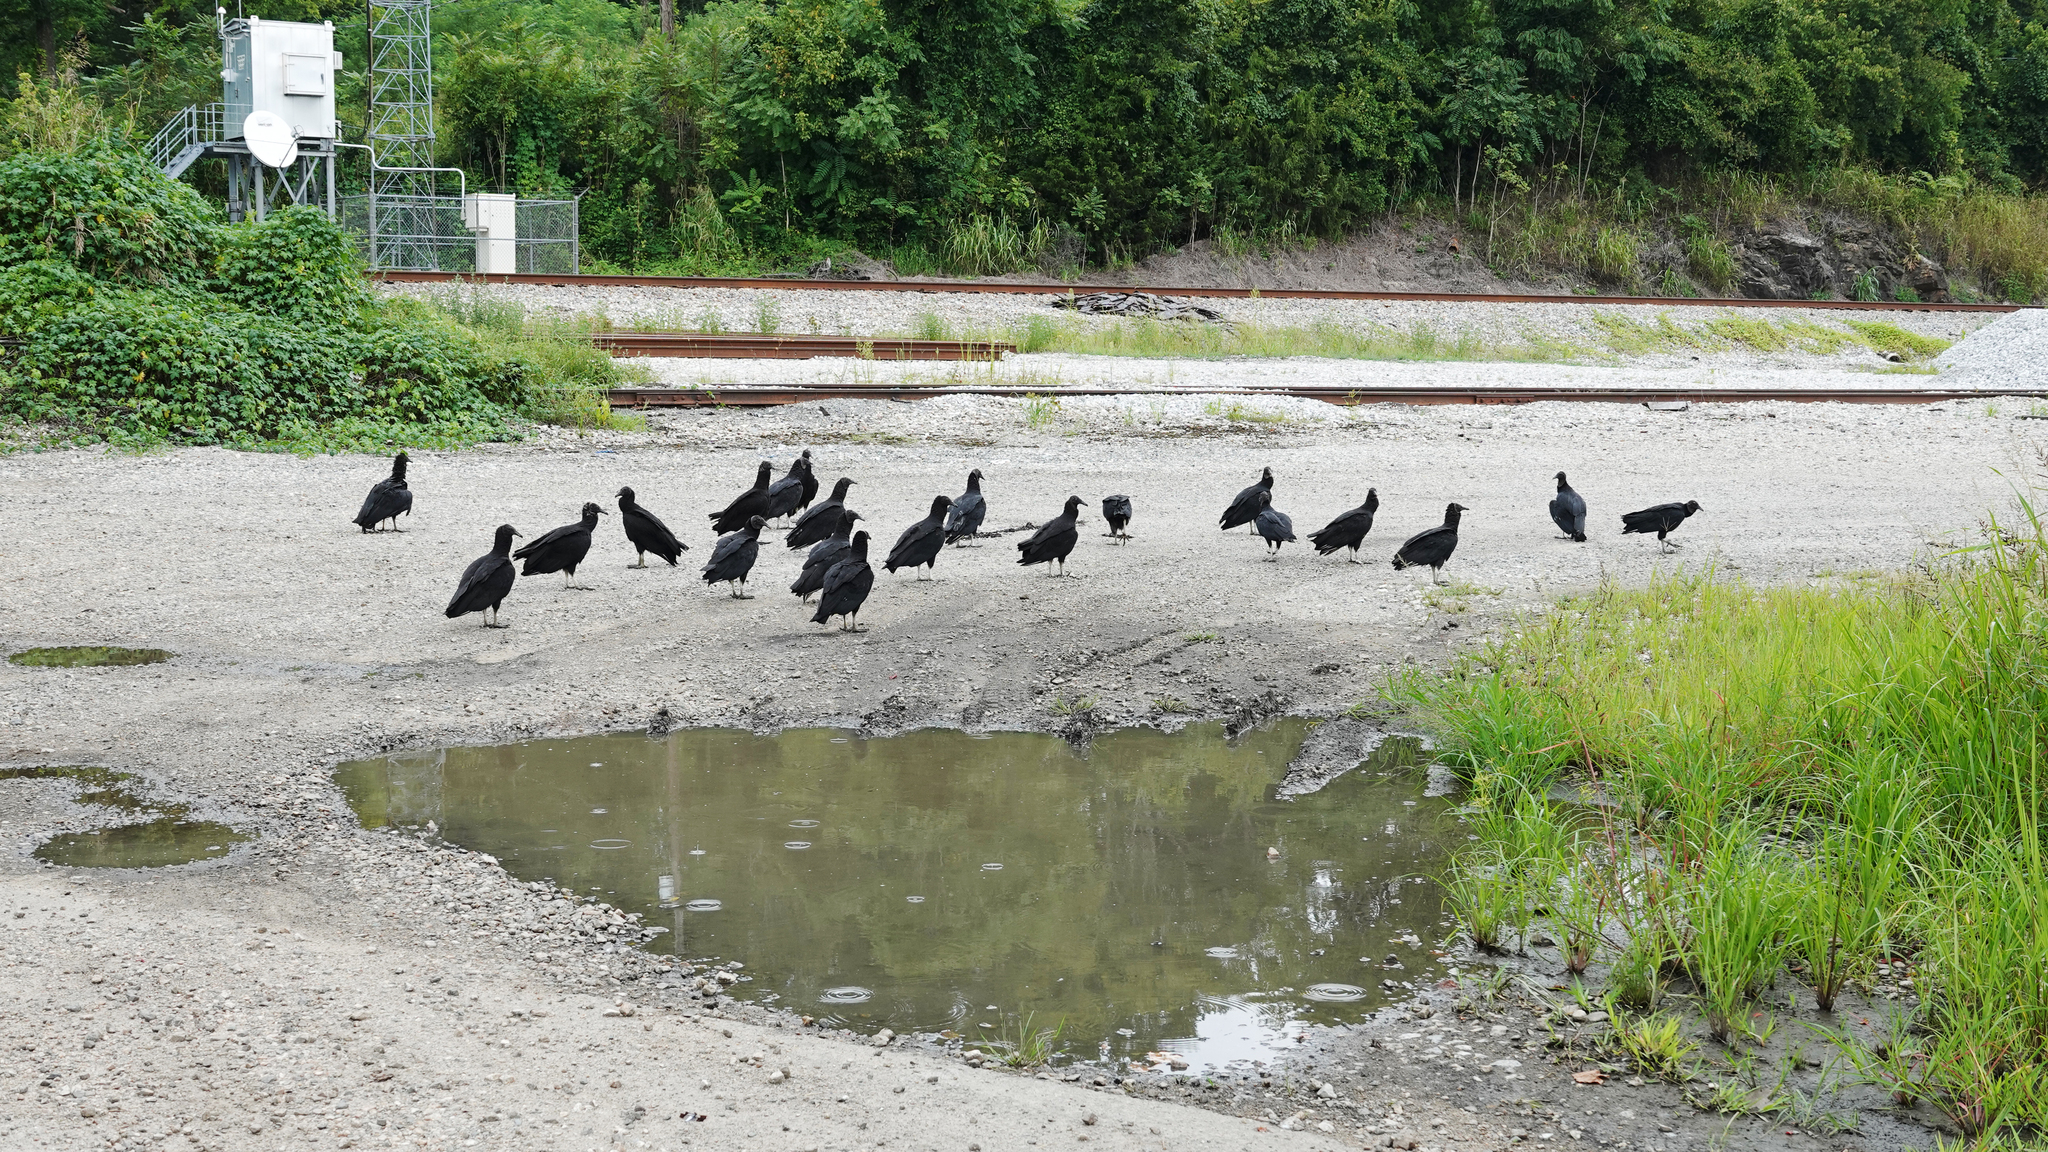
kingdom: Animalia
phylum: Chordata
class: Aves
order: Accipitriformes
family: Cathartidae
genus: Coragyps
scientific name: Coragyps atratus
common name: Black vulture
